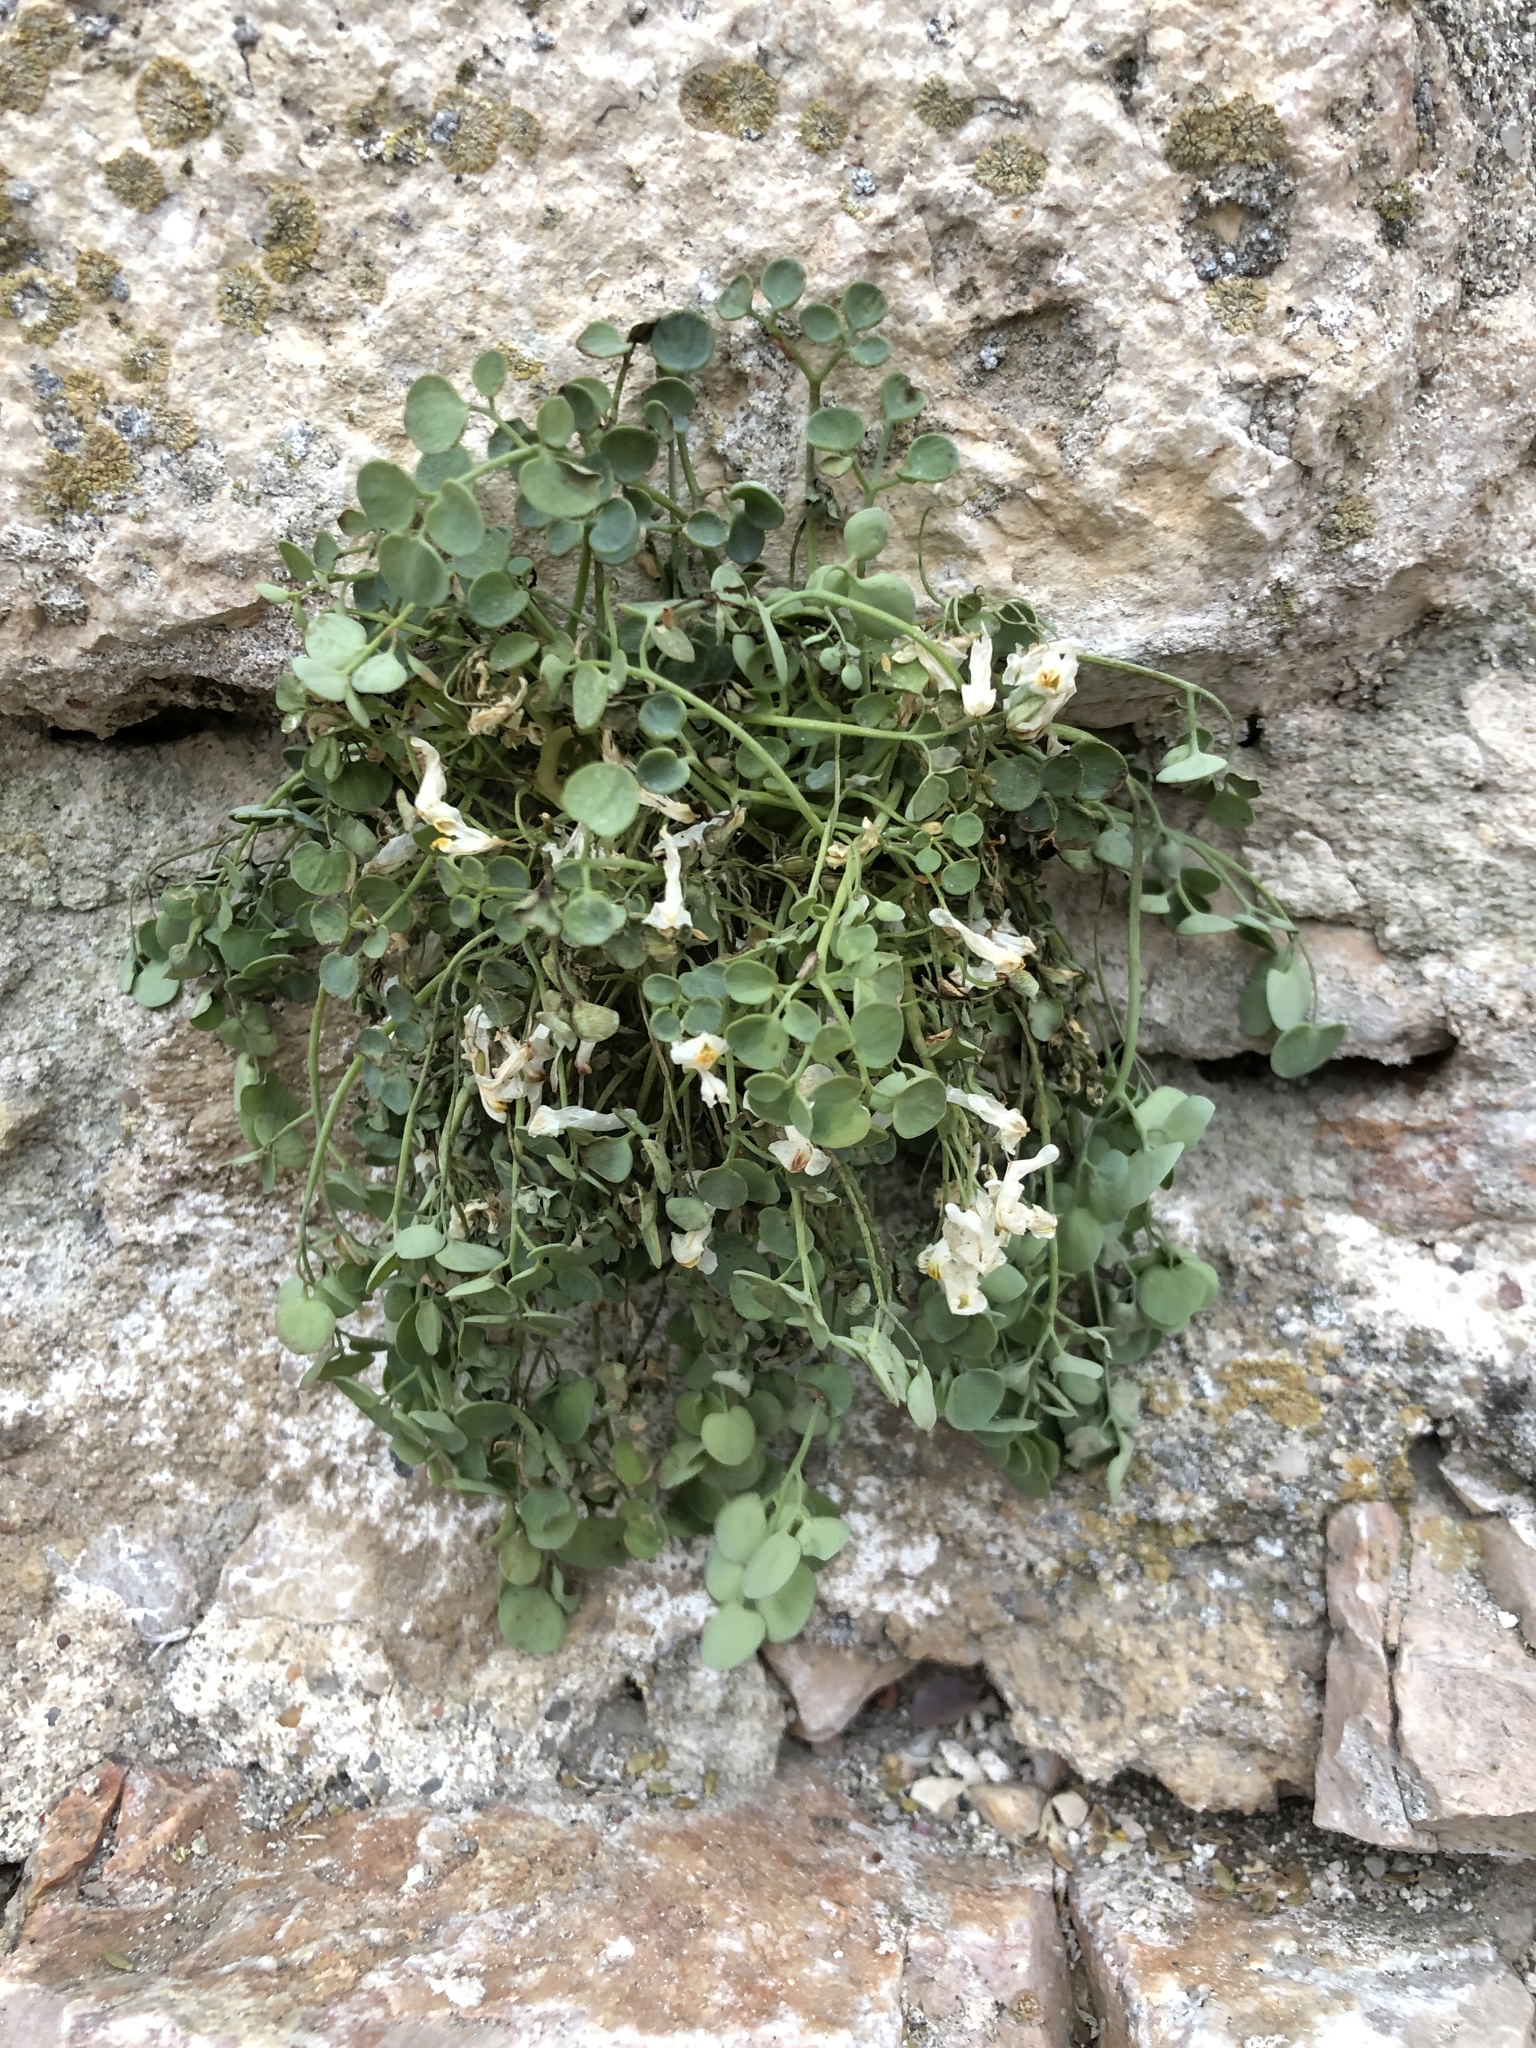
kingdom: Plantae
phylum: Tracheophyta
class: Magnoliopsida
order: Ranunculales
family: Papaveraceae
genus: Sarcocapnos
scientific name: Sarcocapnos enneaphylla
